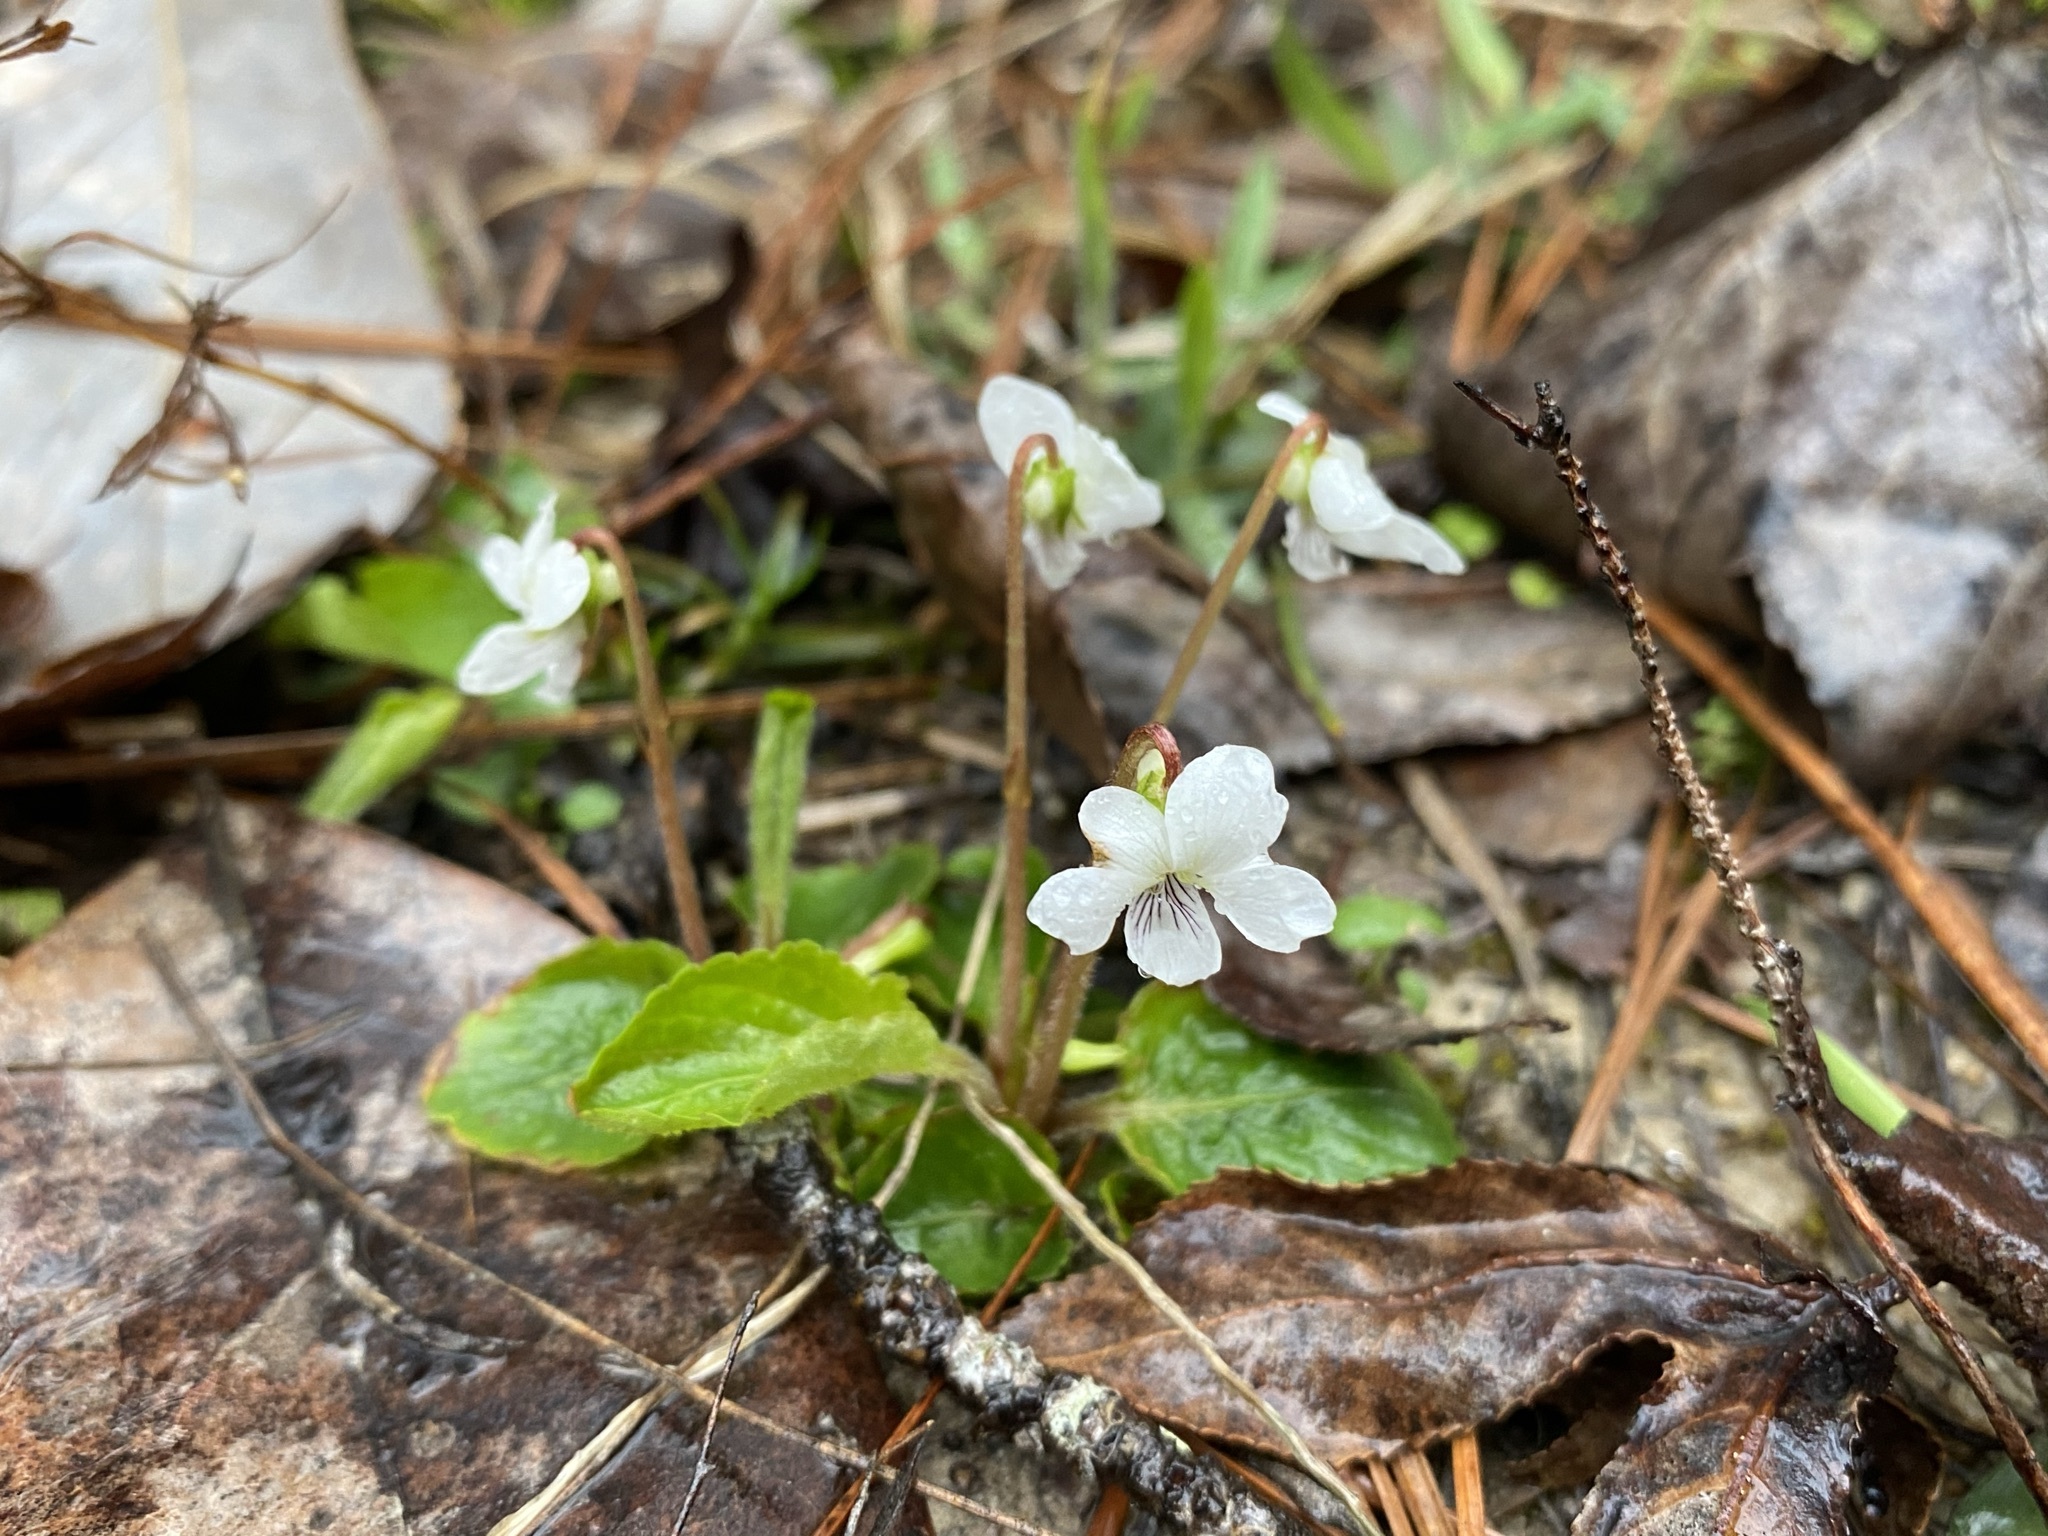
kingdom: Plantae
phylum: Tracheophyta
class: Magnoliopsida
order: Malpighiales
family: Violaceae
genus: Viola
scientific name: Viola primulifolia
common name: Primrose-leaf violet
